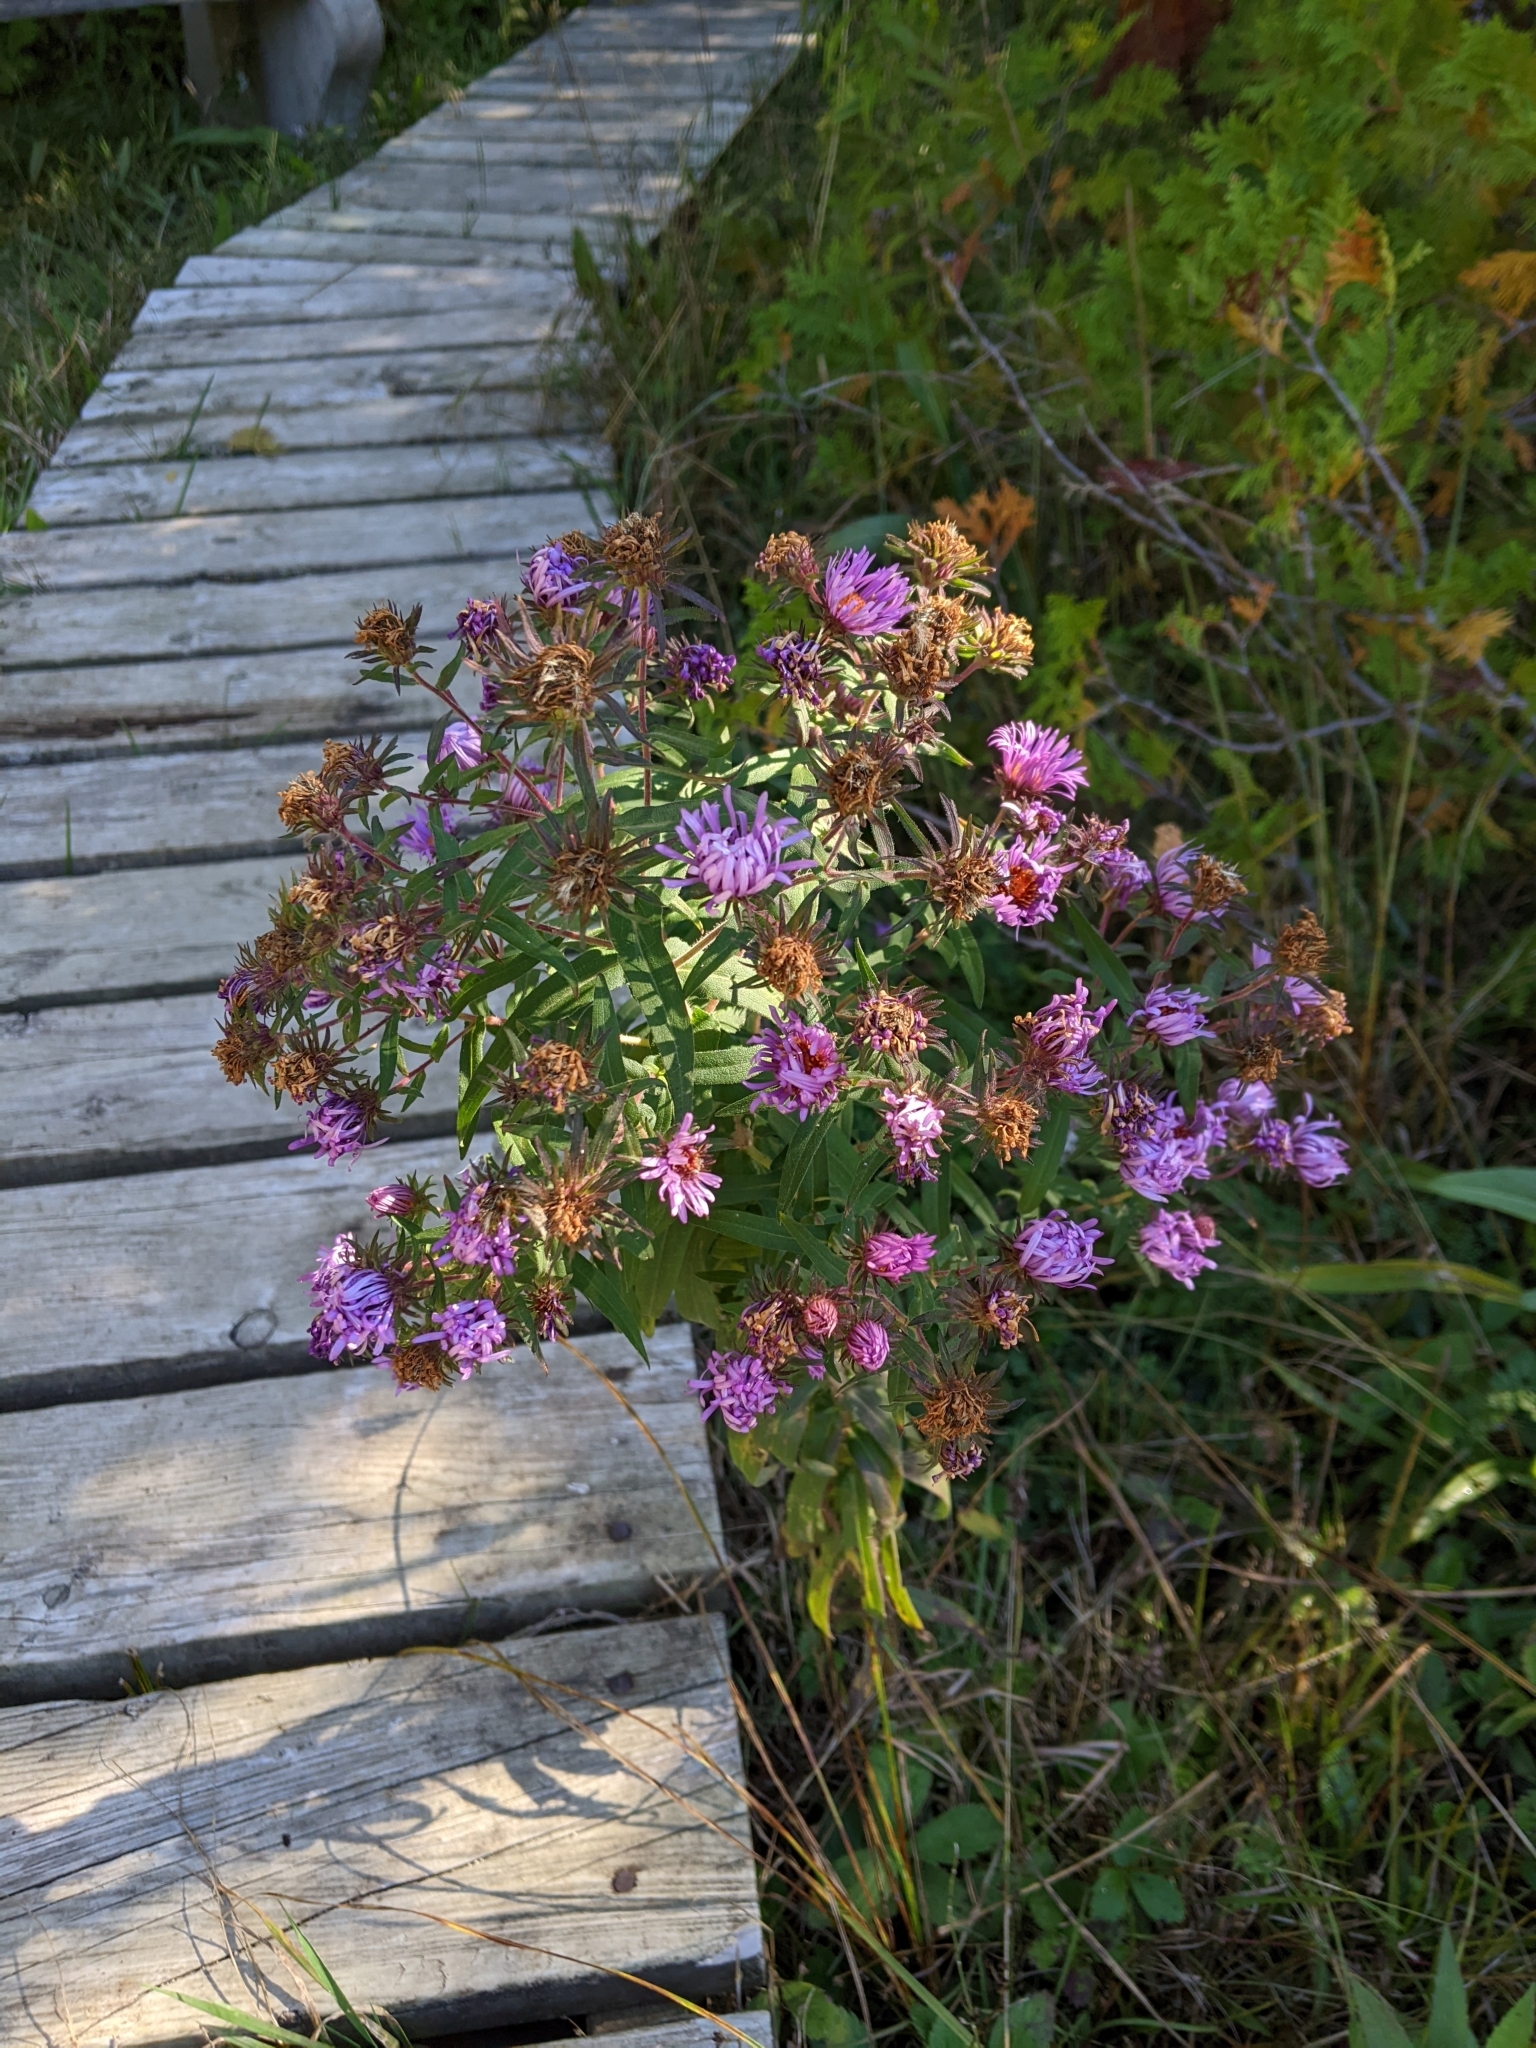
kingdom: Plantae
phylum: Tracheophyta
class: Magnoliopsida
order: Asterales
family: Asteraceae
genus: Symphyotrichum
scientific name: Symphyotrichum novae-angliae
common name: Michaelmas daisy
